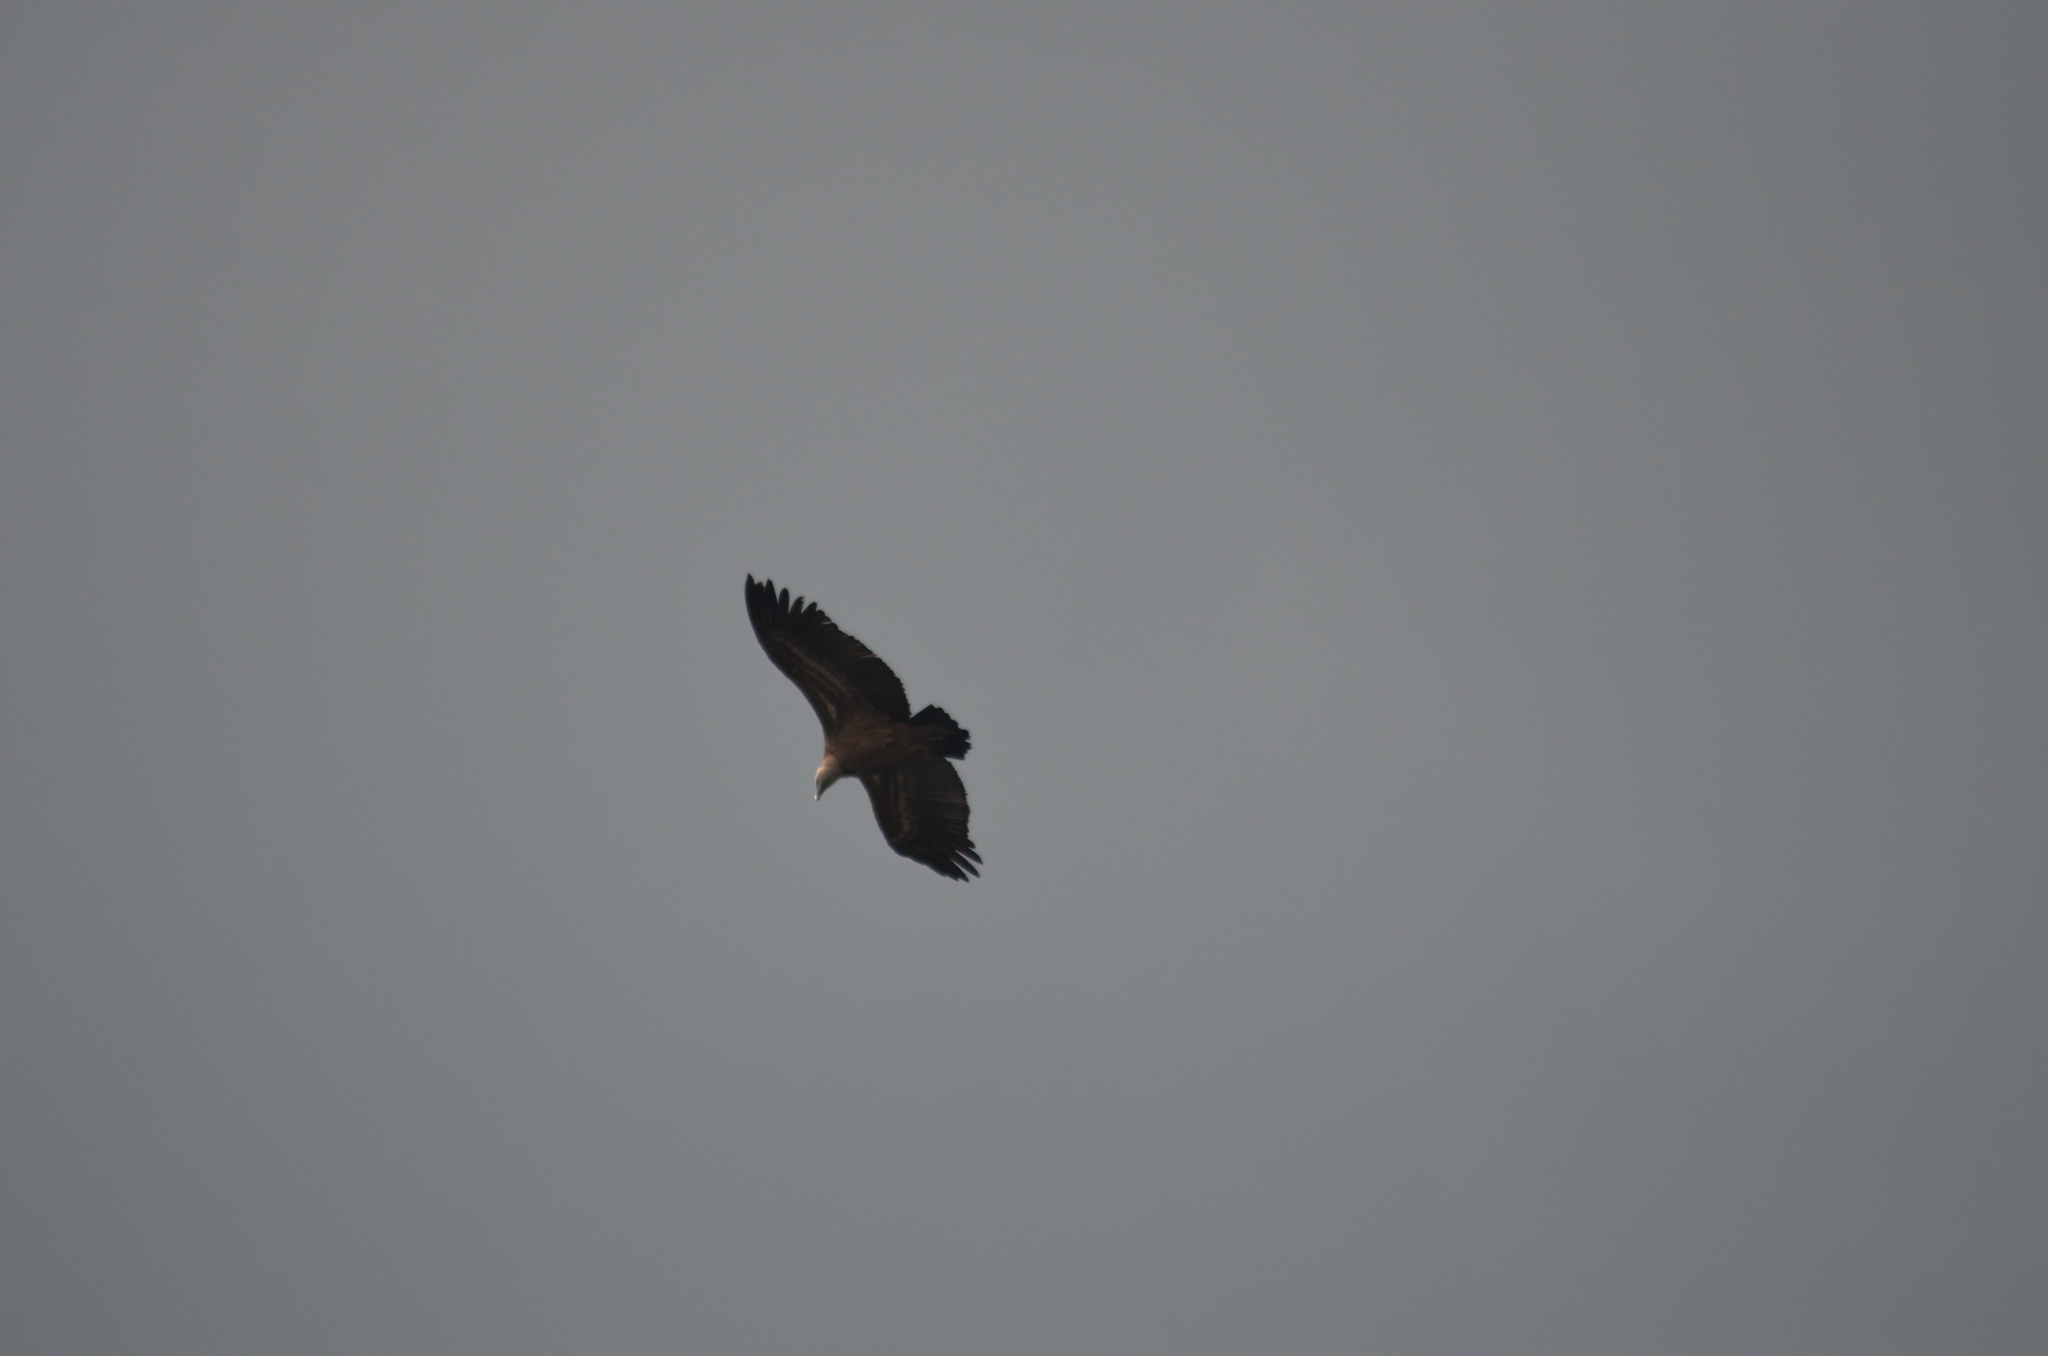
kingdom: Animalia
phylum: Chordata
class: Aves
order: Accipitriformes
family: Accipitridae
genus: Gyps
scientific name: Gyps fulvus
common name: Griffon vulture
